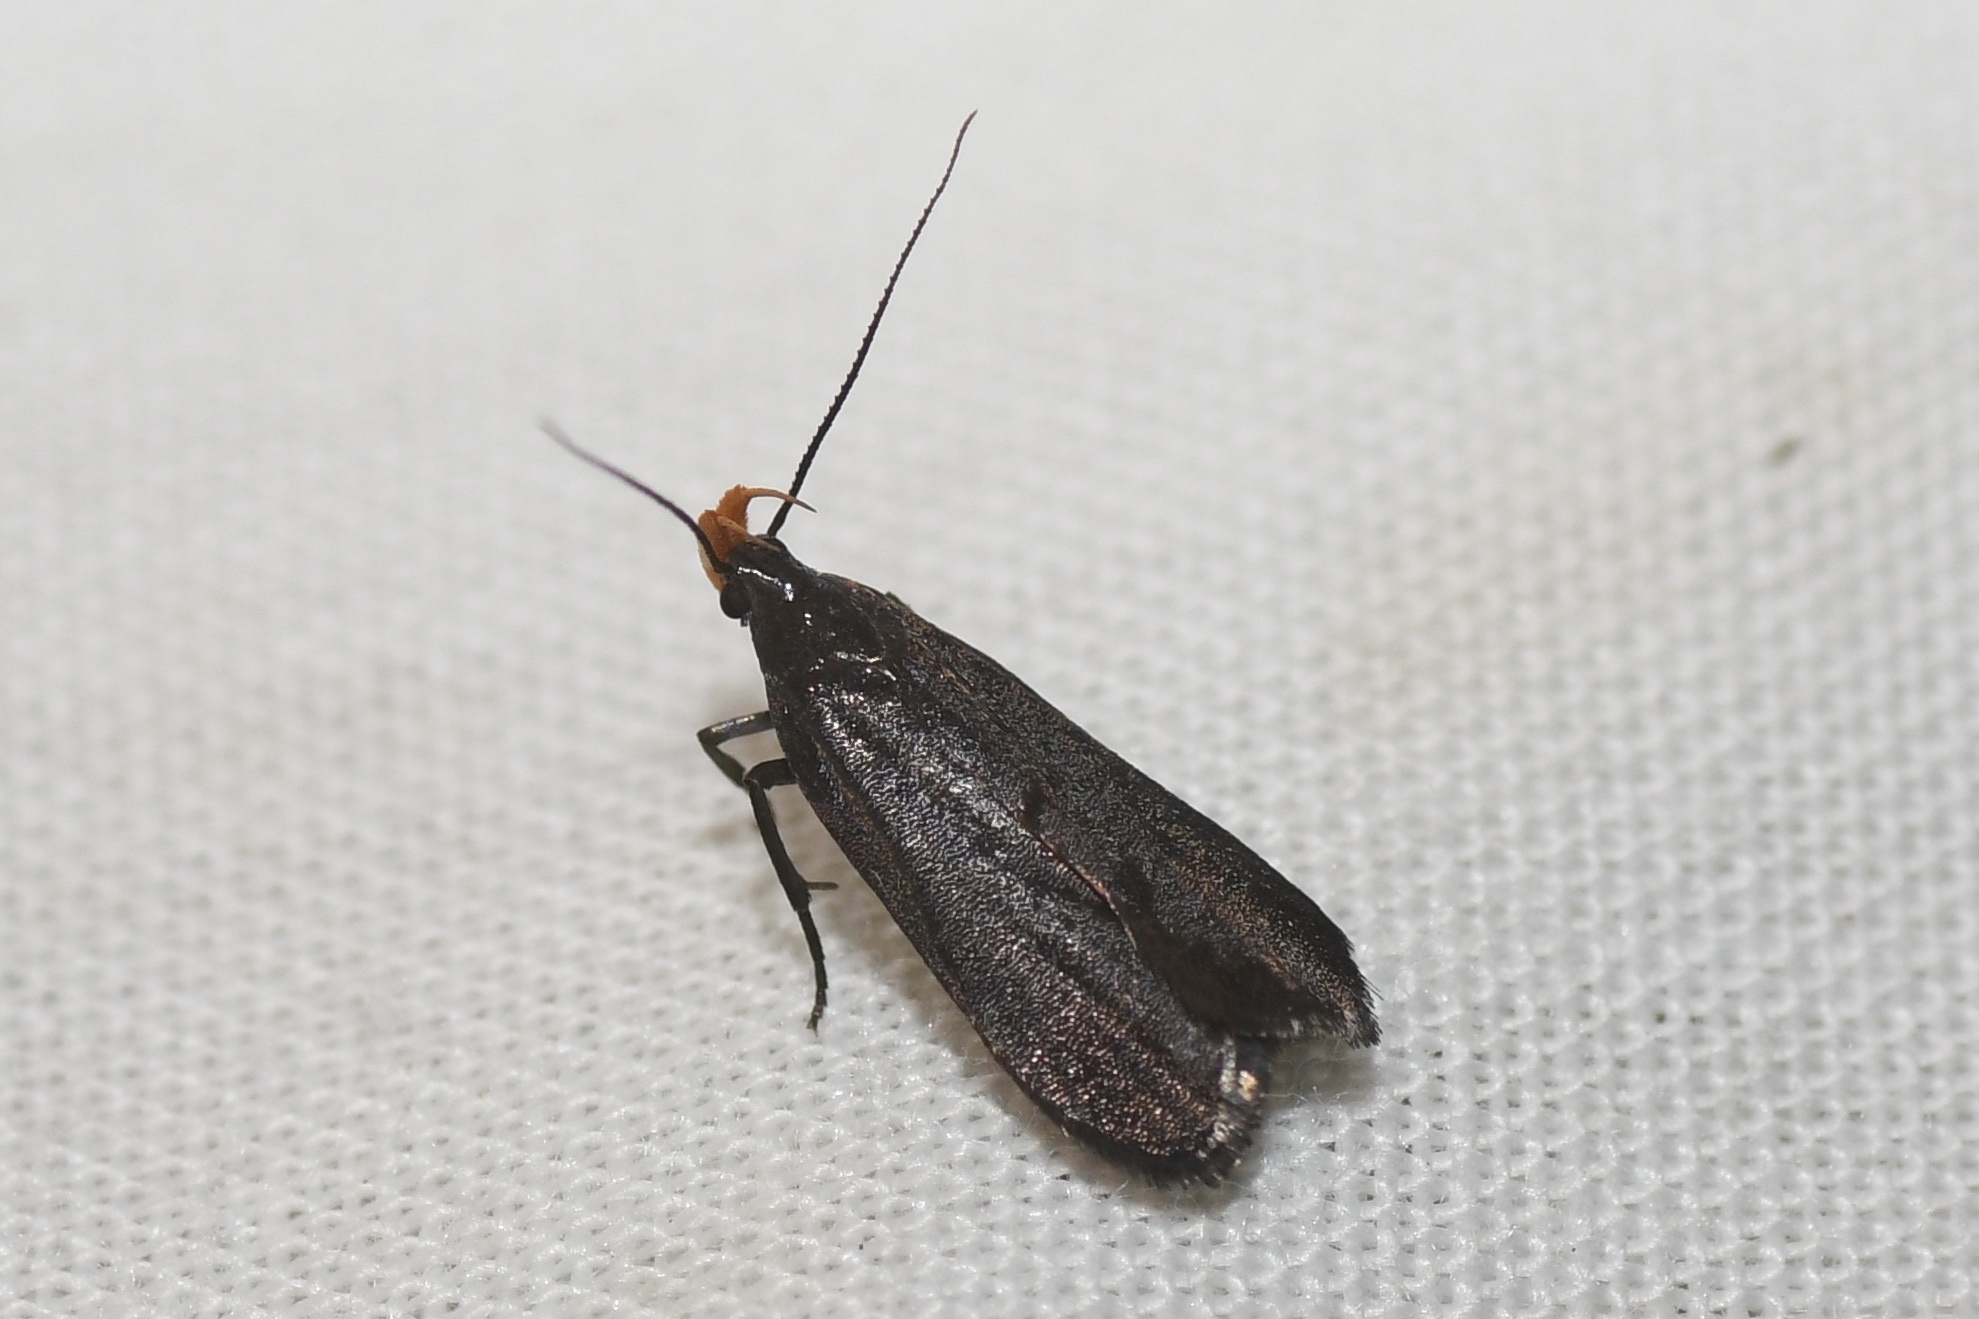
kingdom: Animalia
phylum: Arthropoda
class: Insecta
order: Lepidoptera
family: Gelechiidae
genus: Dichomeris
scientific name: Dichomeris purpureofusca
